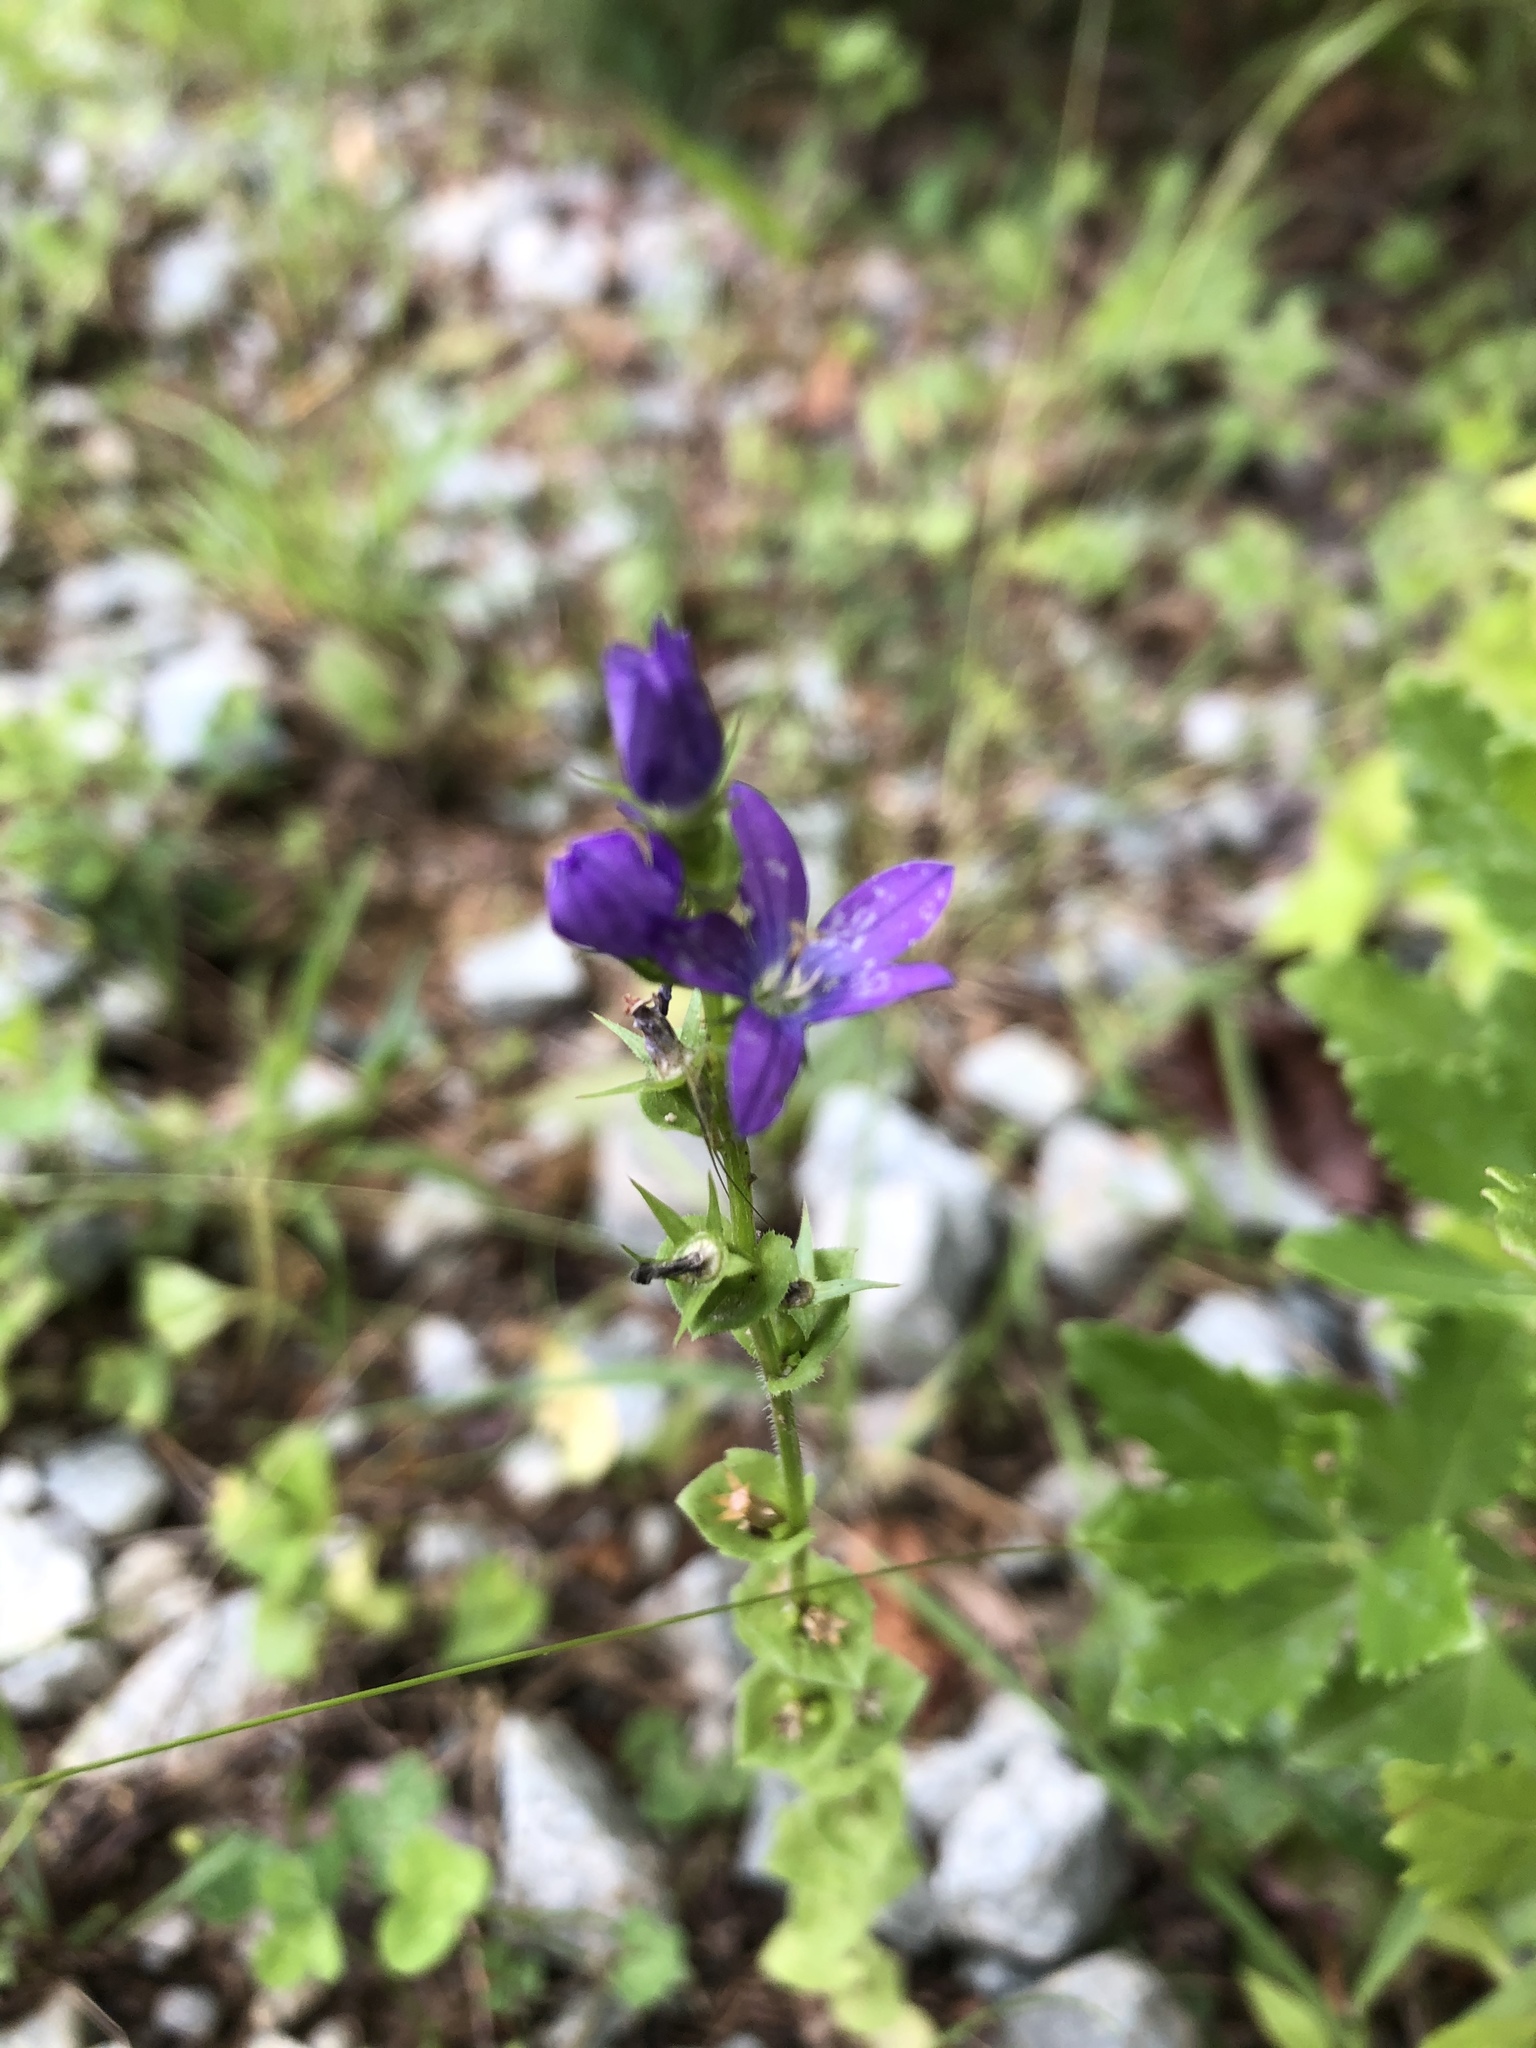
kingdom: Plantae
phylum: Tracheophyta
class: Magnoliopsida
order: Asterales
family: Campanulaceae
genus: Triodanis
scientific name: Triodanis perfoliata
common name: Clasping venus' looking-glass
